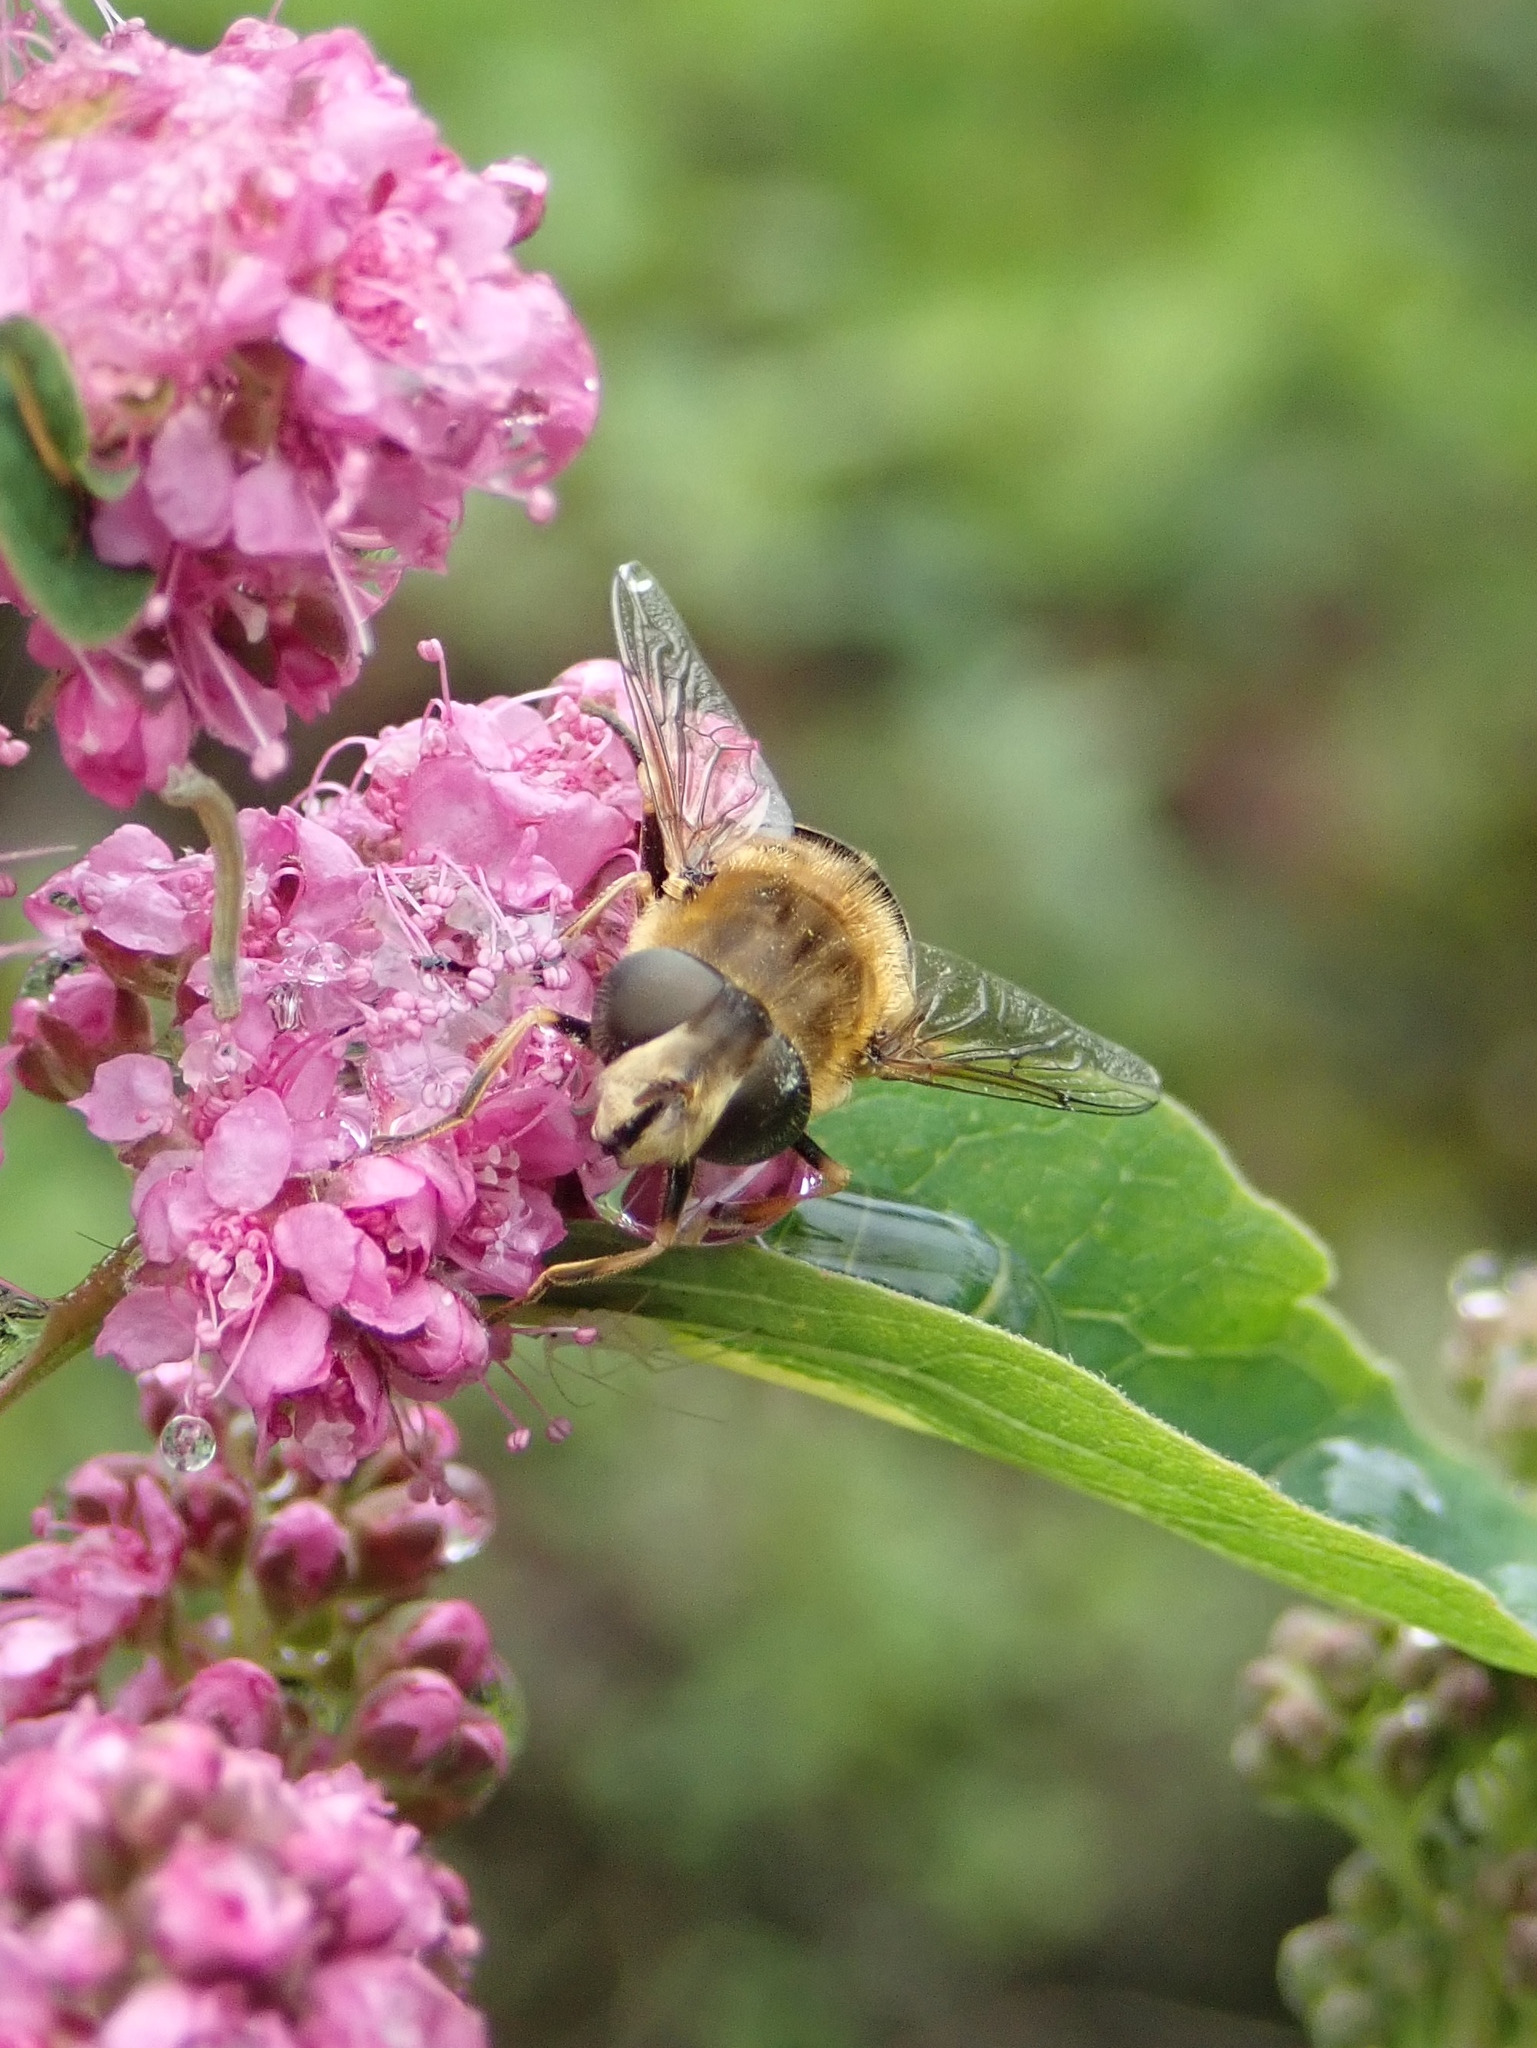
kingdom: Animalia
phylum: Arthropoda
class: Insecta
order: Diptera
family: Syrphidae
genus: Eristalis
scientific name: Eristalis nemorum
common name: Orange-spined drone fly
